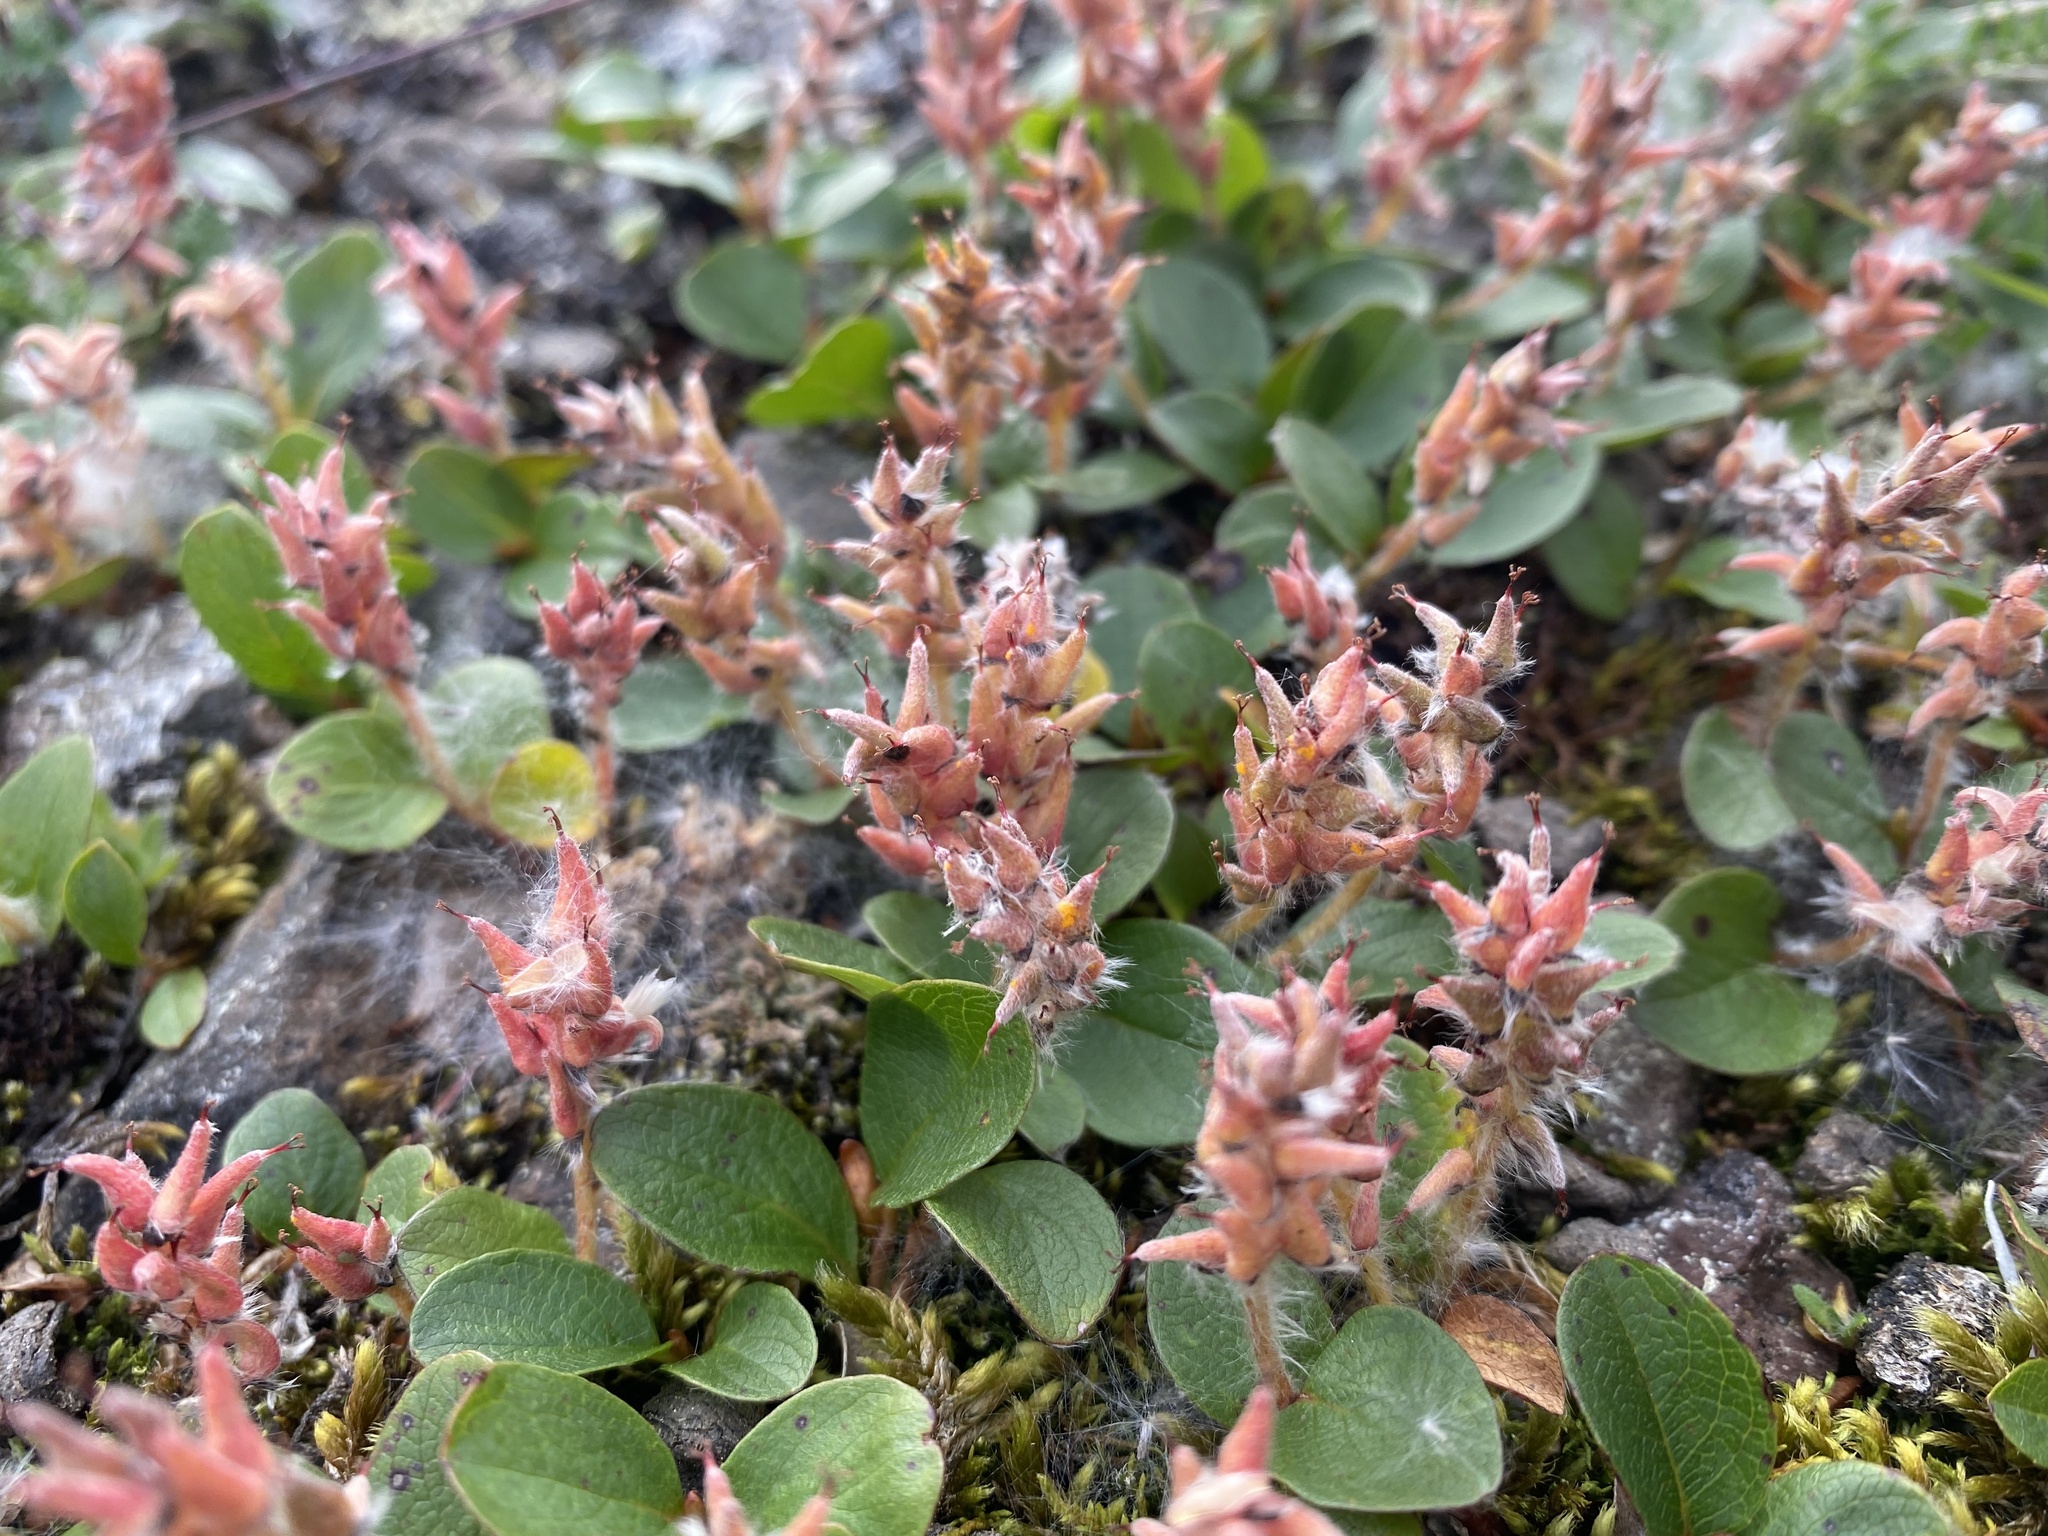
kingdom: Plantae
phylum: Tracheophyta
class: Magnoliopsida
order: Malpighiales
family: Salicaceae
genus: Salix
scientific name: Salix polaris
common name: Polar willow
